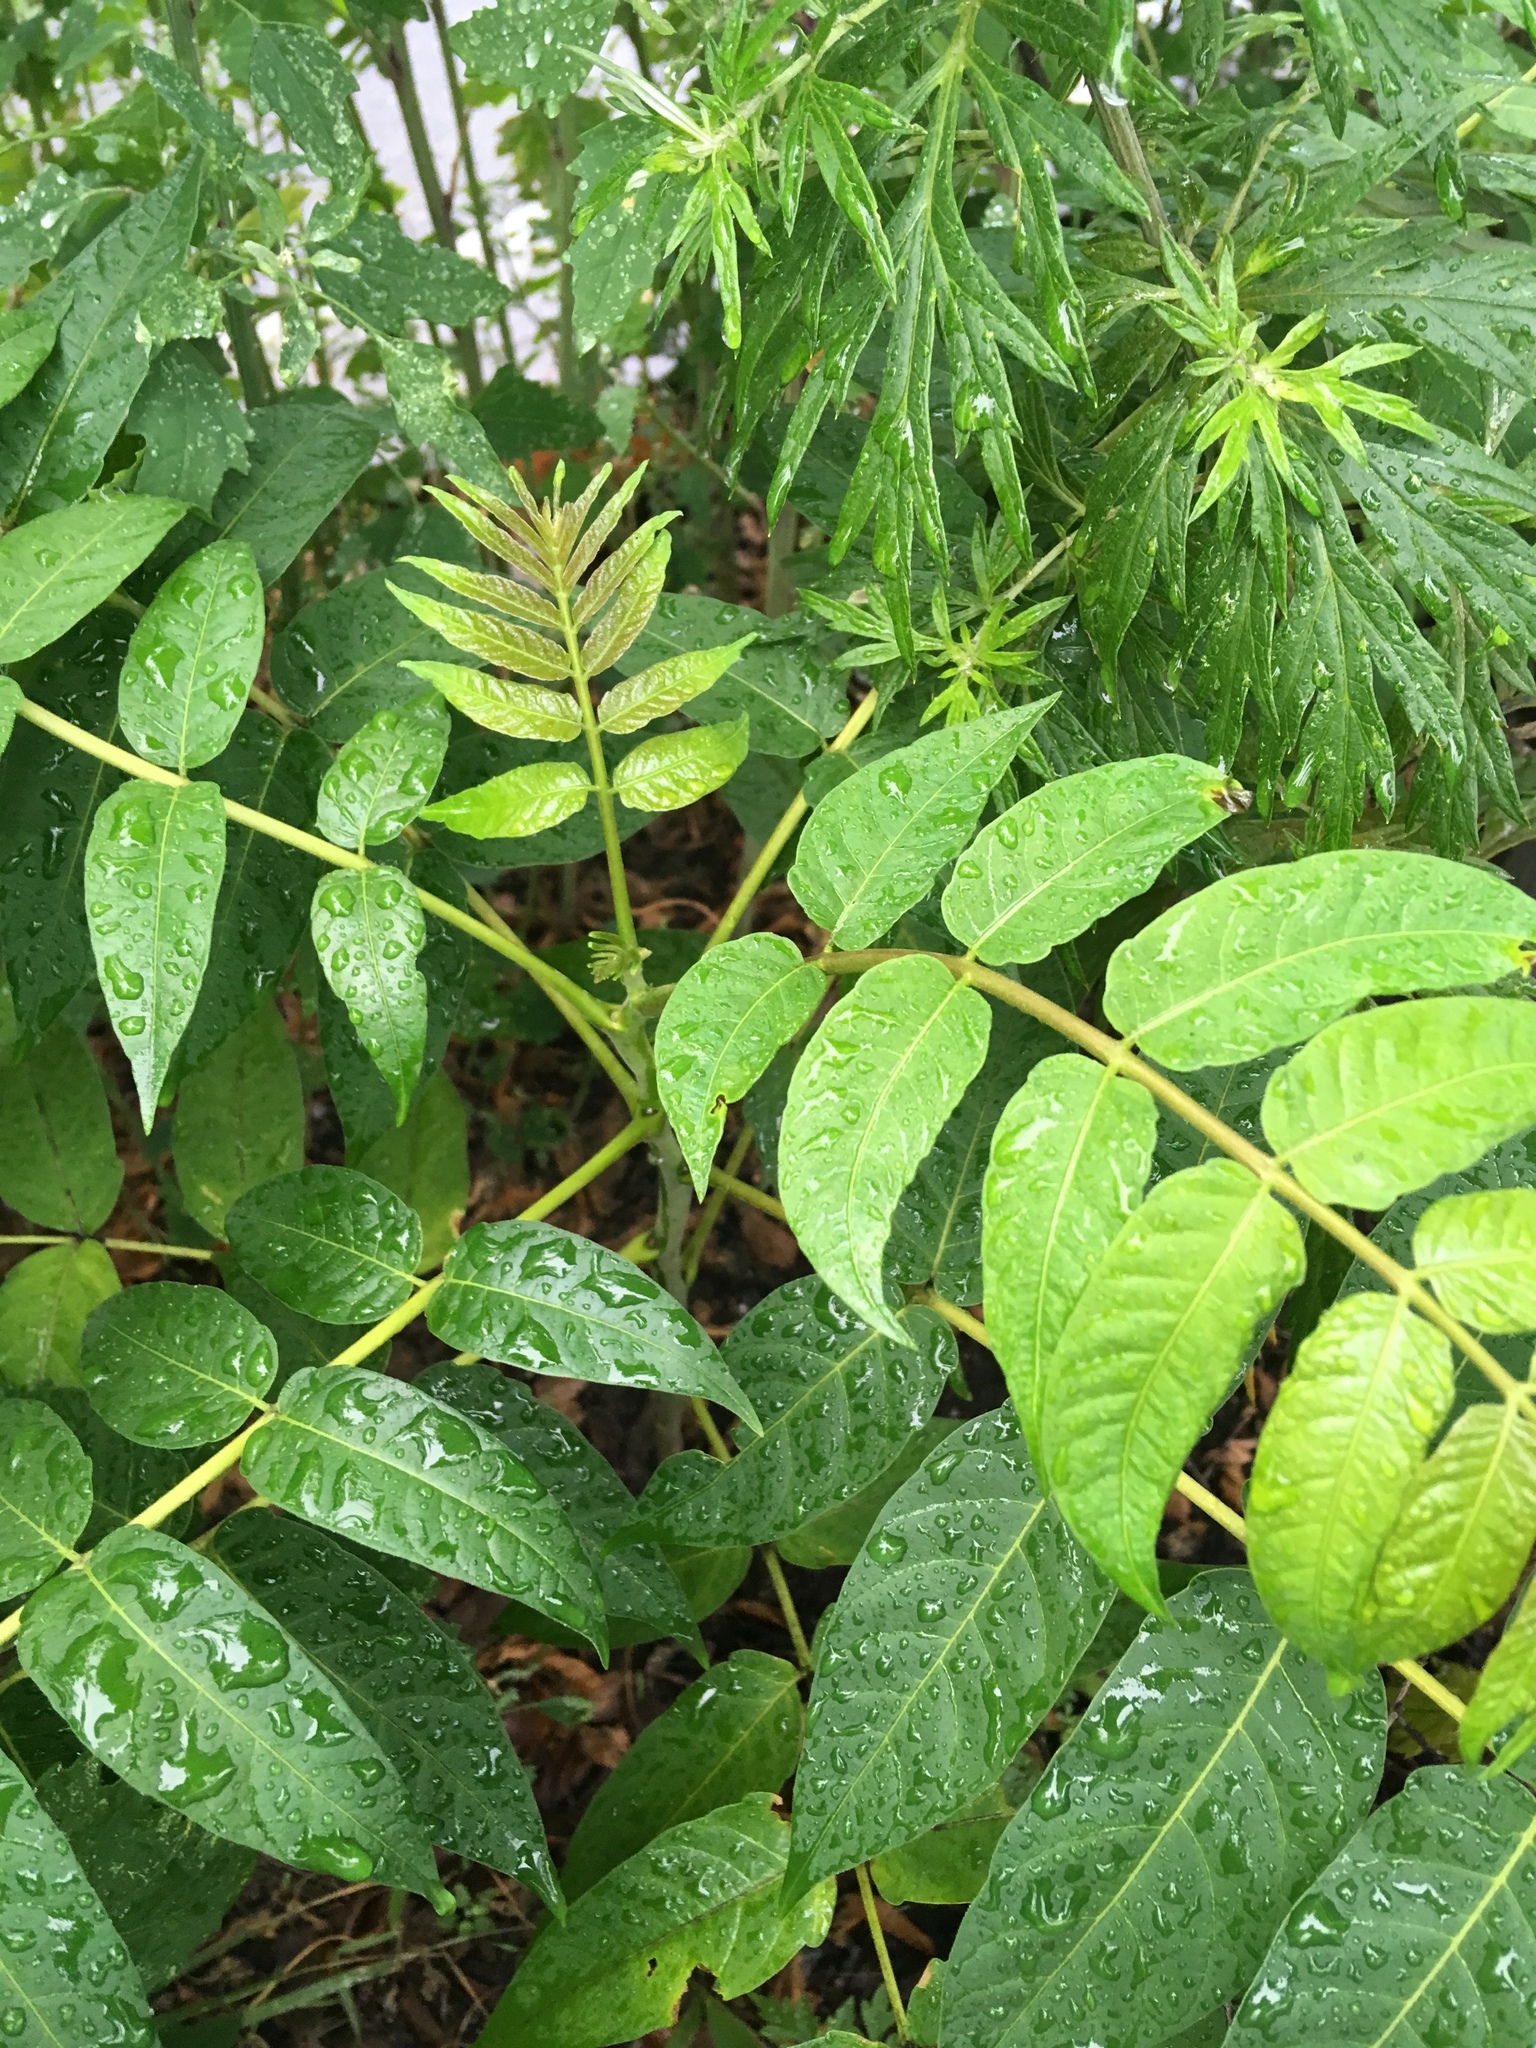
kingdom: Plantae
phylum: Tracheophyta
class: Magnoliopsida
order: Sapindales
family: Simaroubaceae
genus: Ailanthus
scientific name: Ailanthus altissima
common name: Tree-of-heaven
